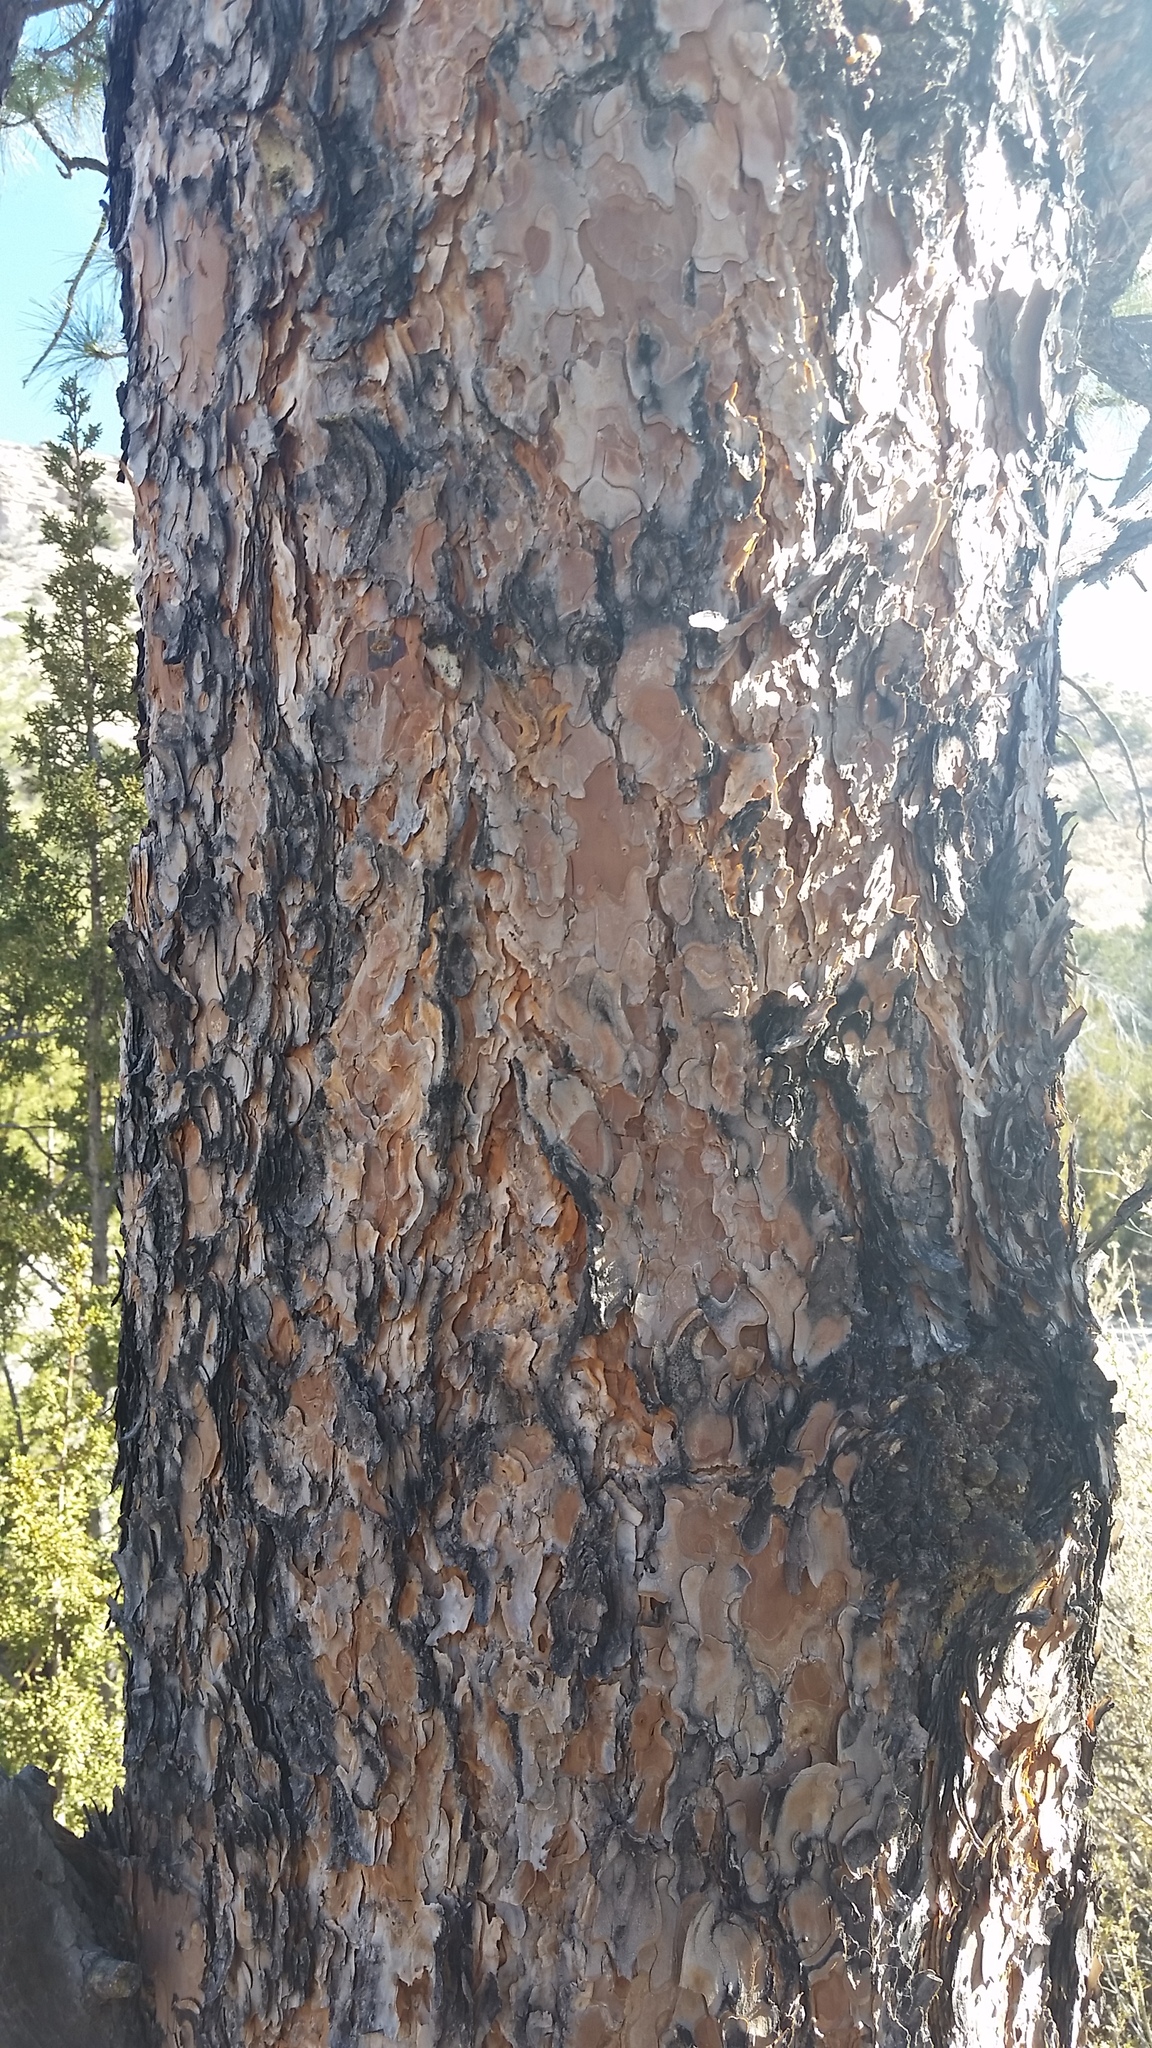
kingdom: Plantae
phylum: Tracheophyta
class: Pinopsida
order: Pinales
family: Pinaceae
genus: Pinus
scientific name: Pinus ponderosa
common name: Western yellow-pine
